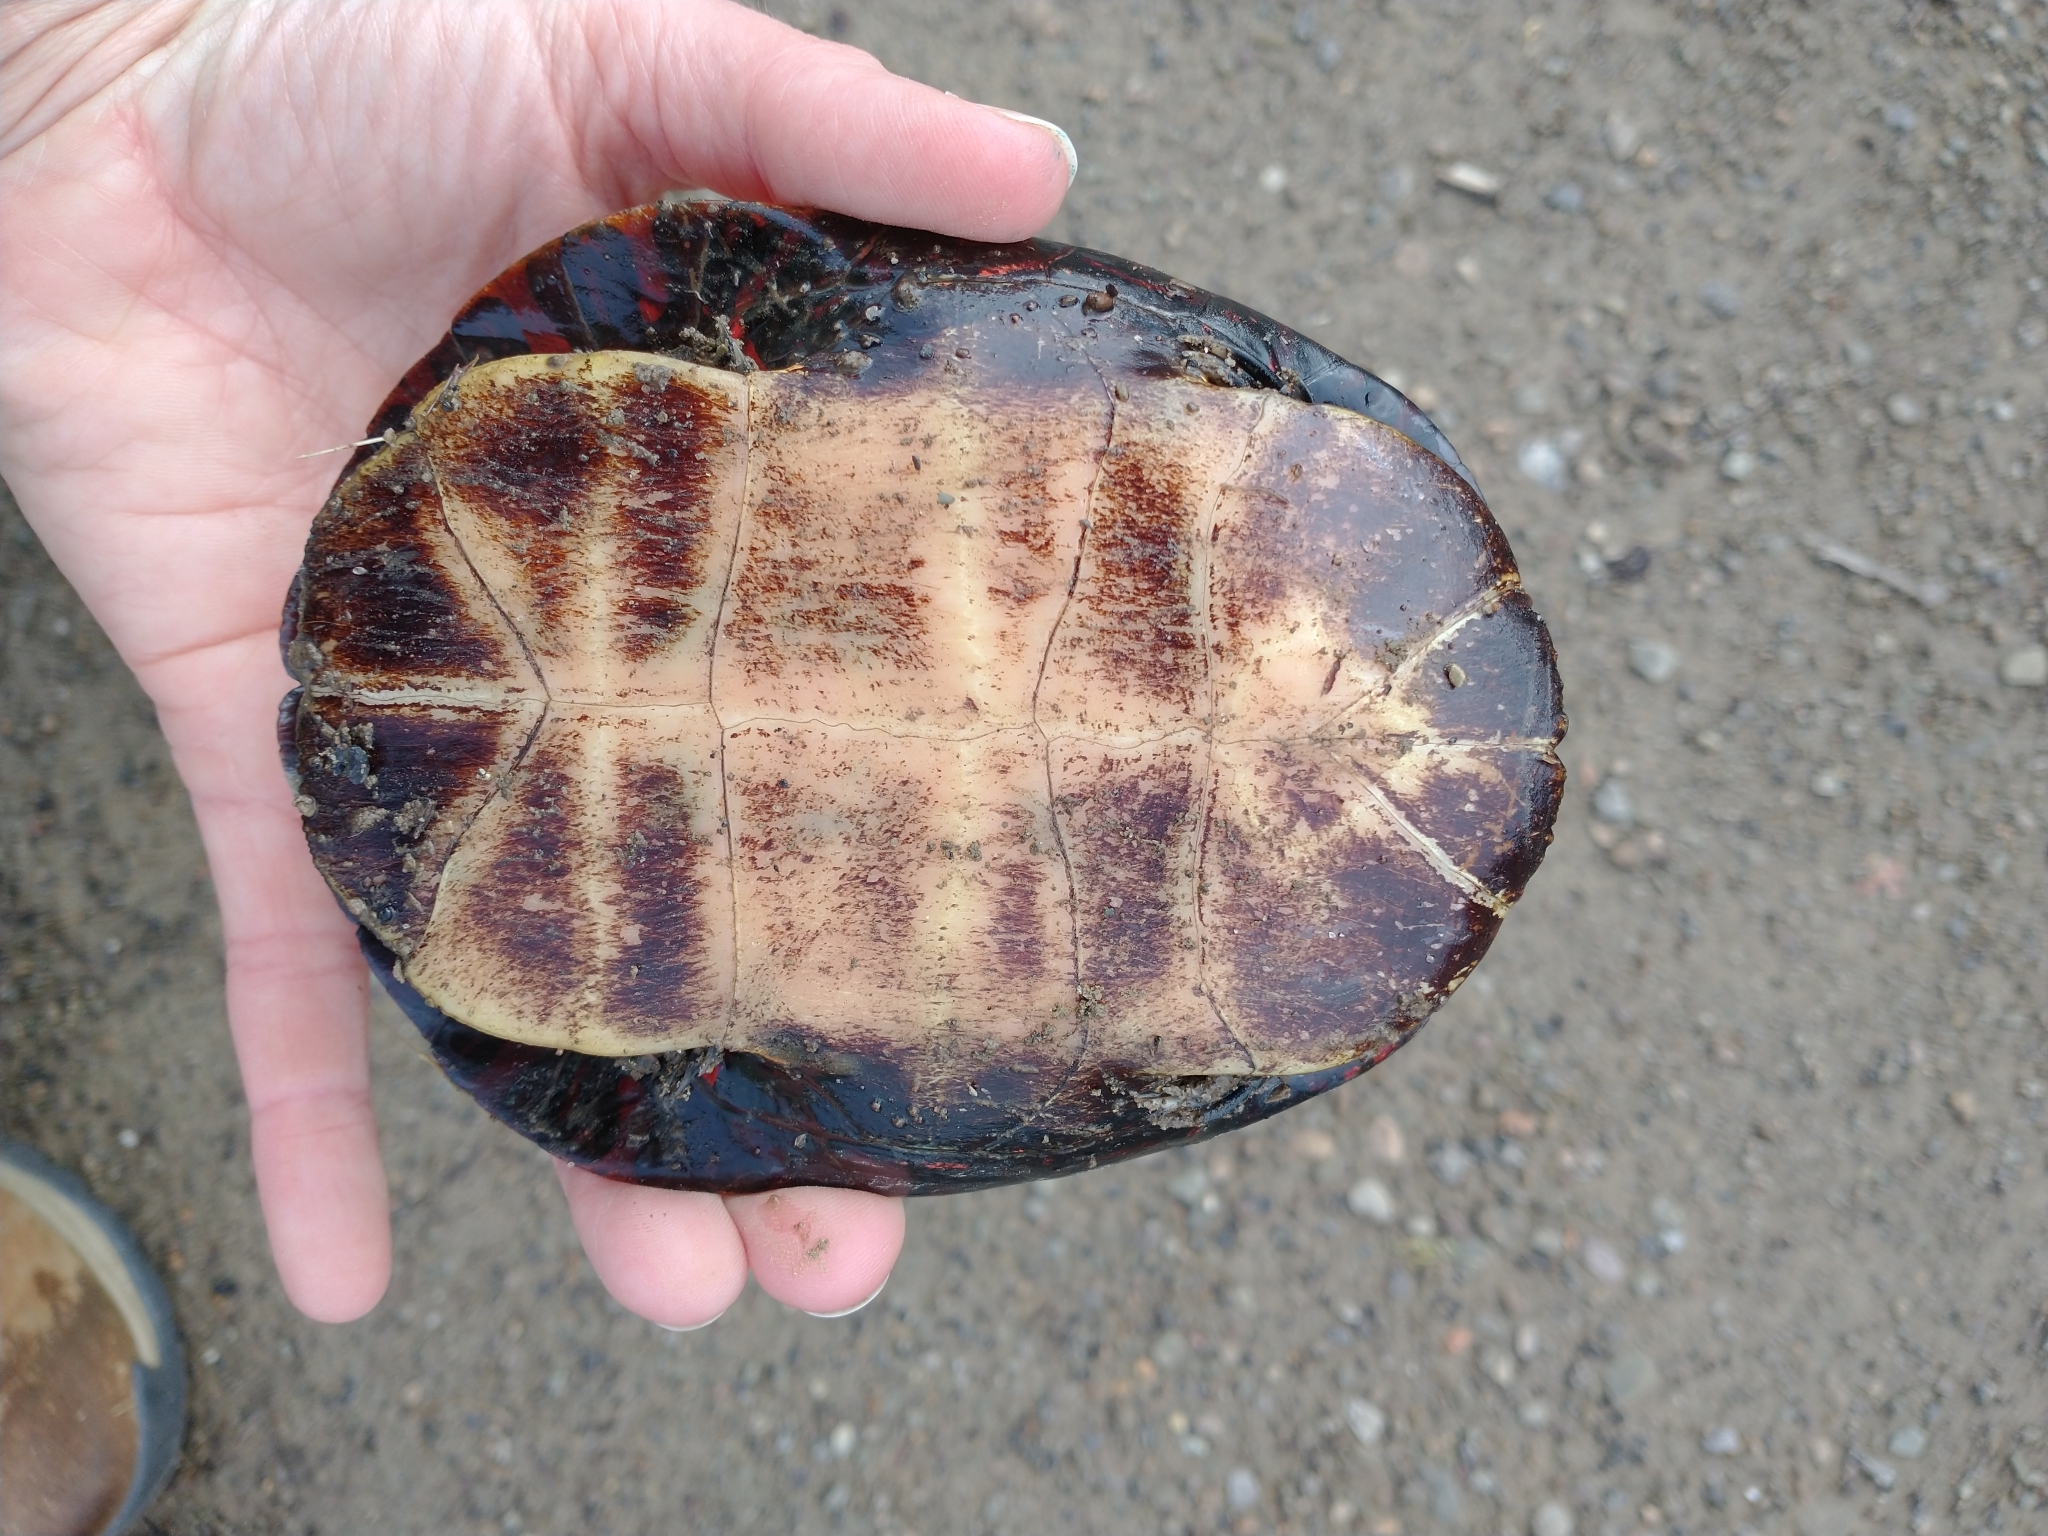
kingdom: Animalia
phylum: Chordata
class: Testudines
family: Emydidae
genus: Chrysemys
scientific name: Chrysemys picta
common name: Painted turtle
